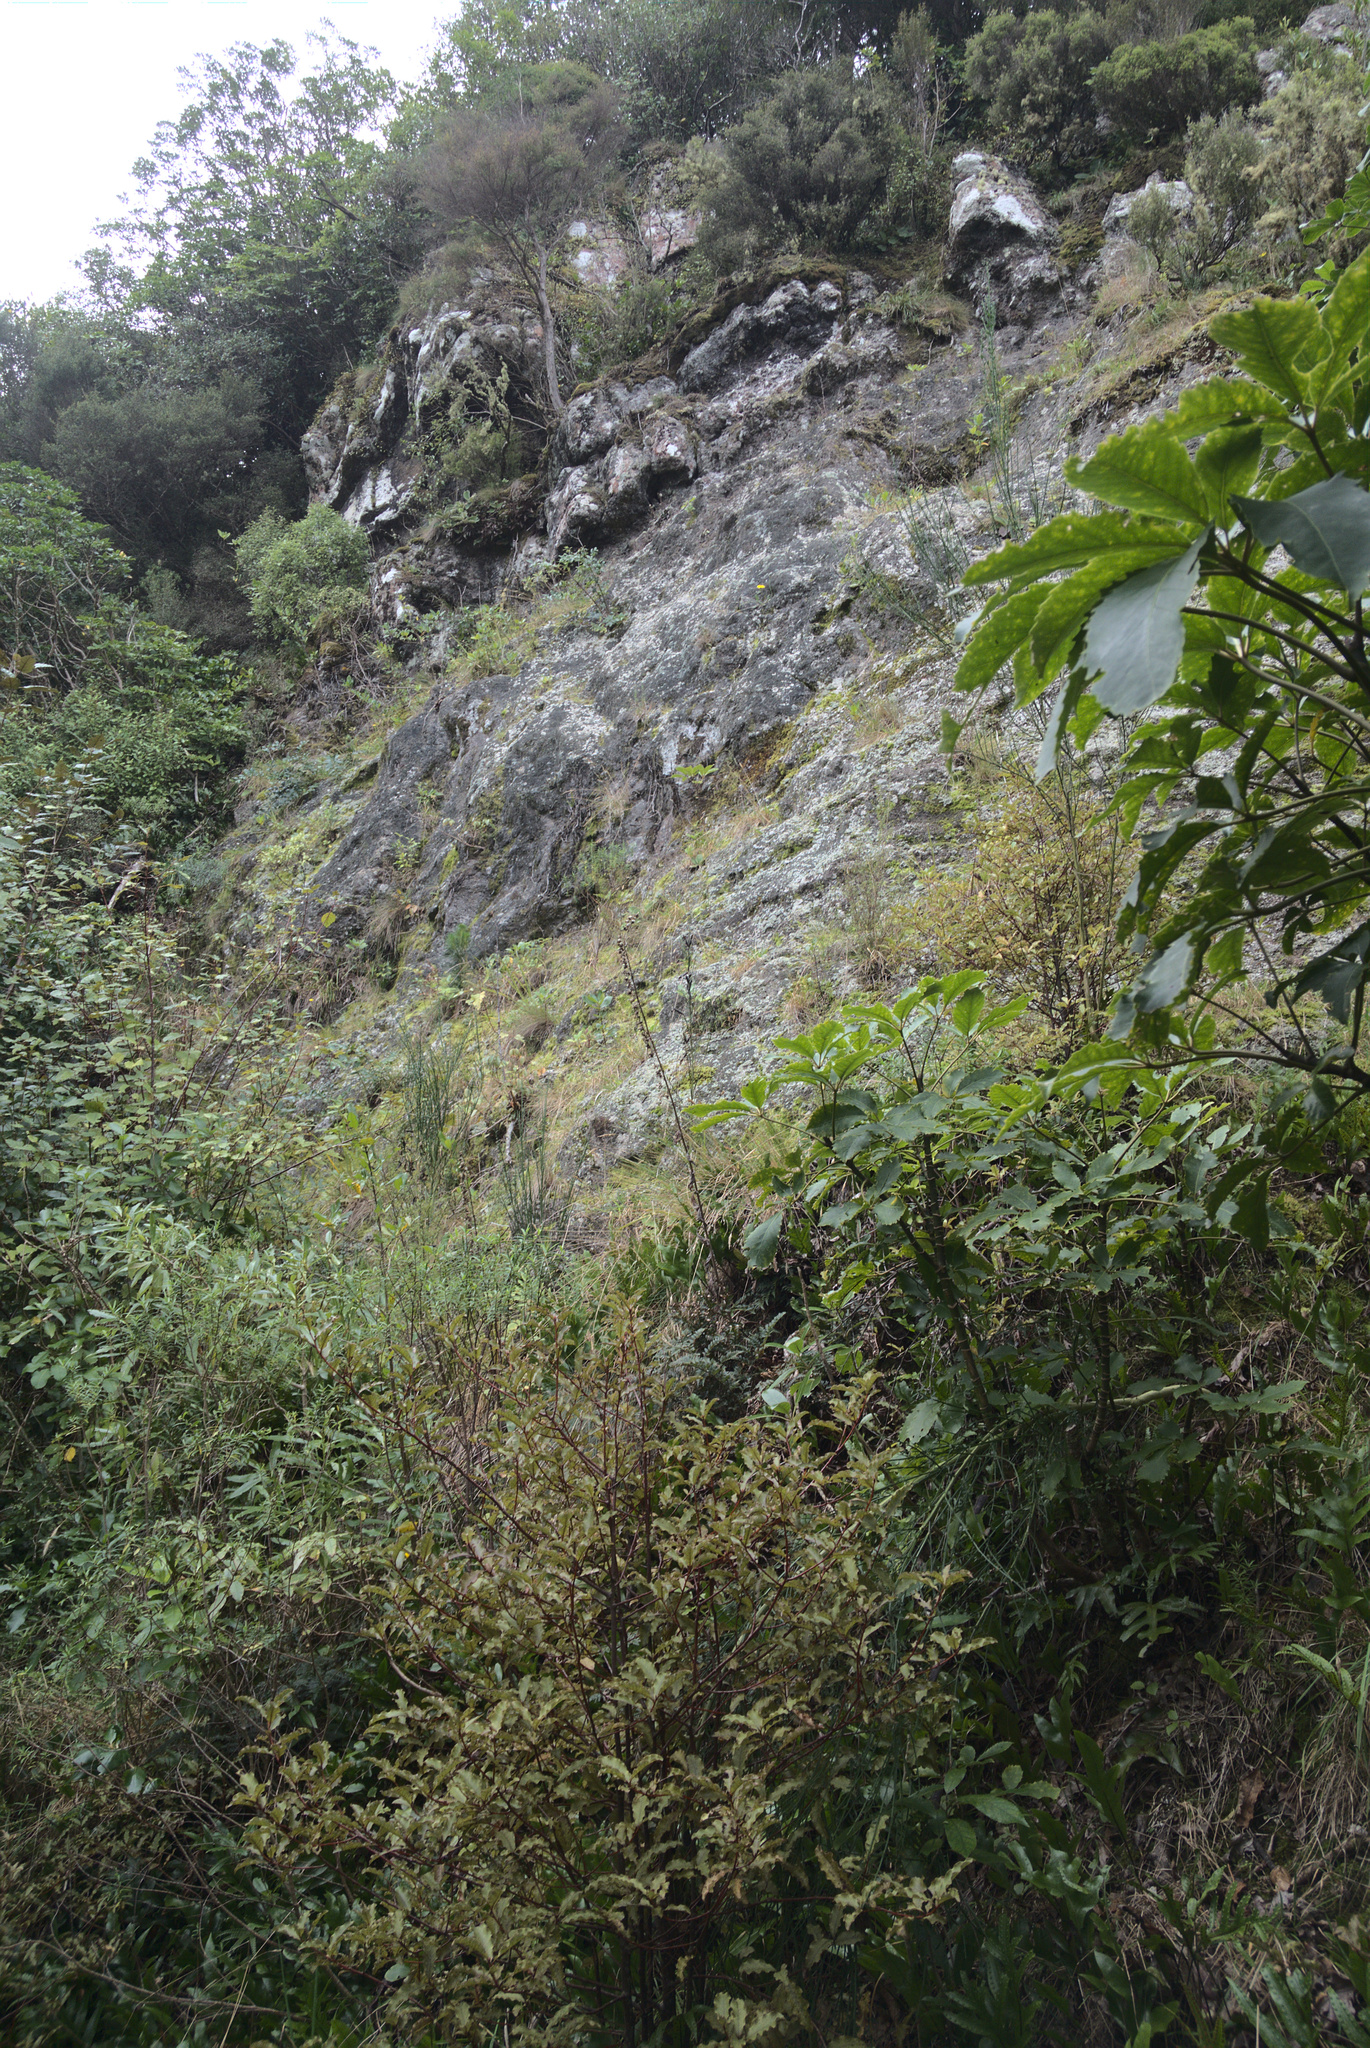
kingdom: Plantae
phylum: Tracheophyta
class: Magnoliopsida
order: Ericales
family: Primulaceae
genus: Myrsine
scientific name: Myrsine australis
